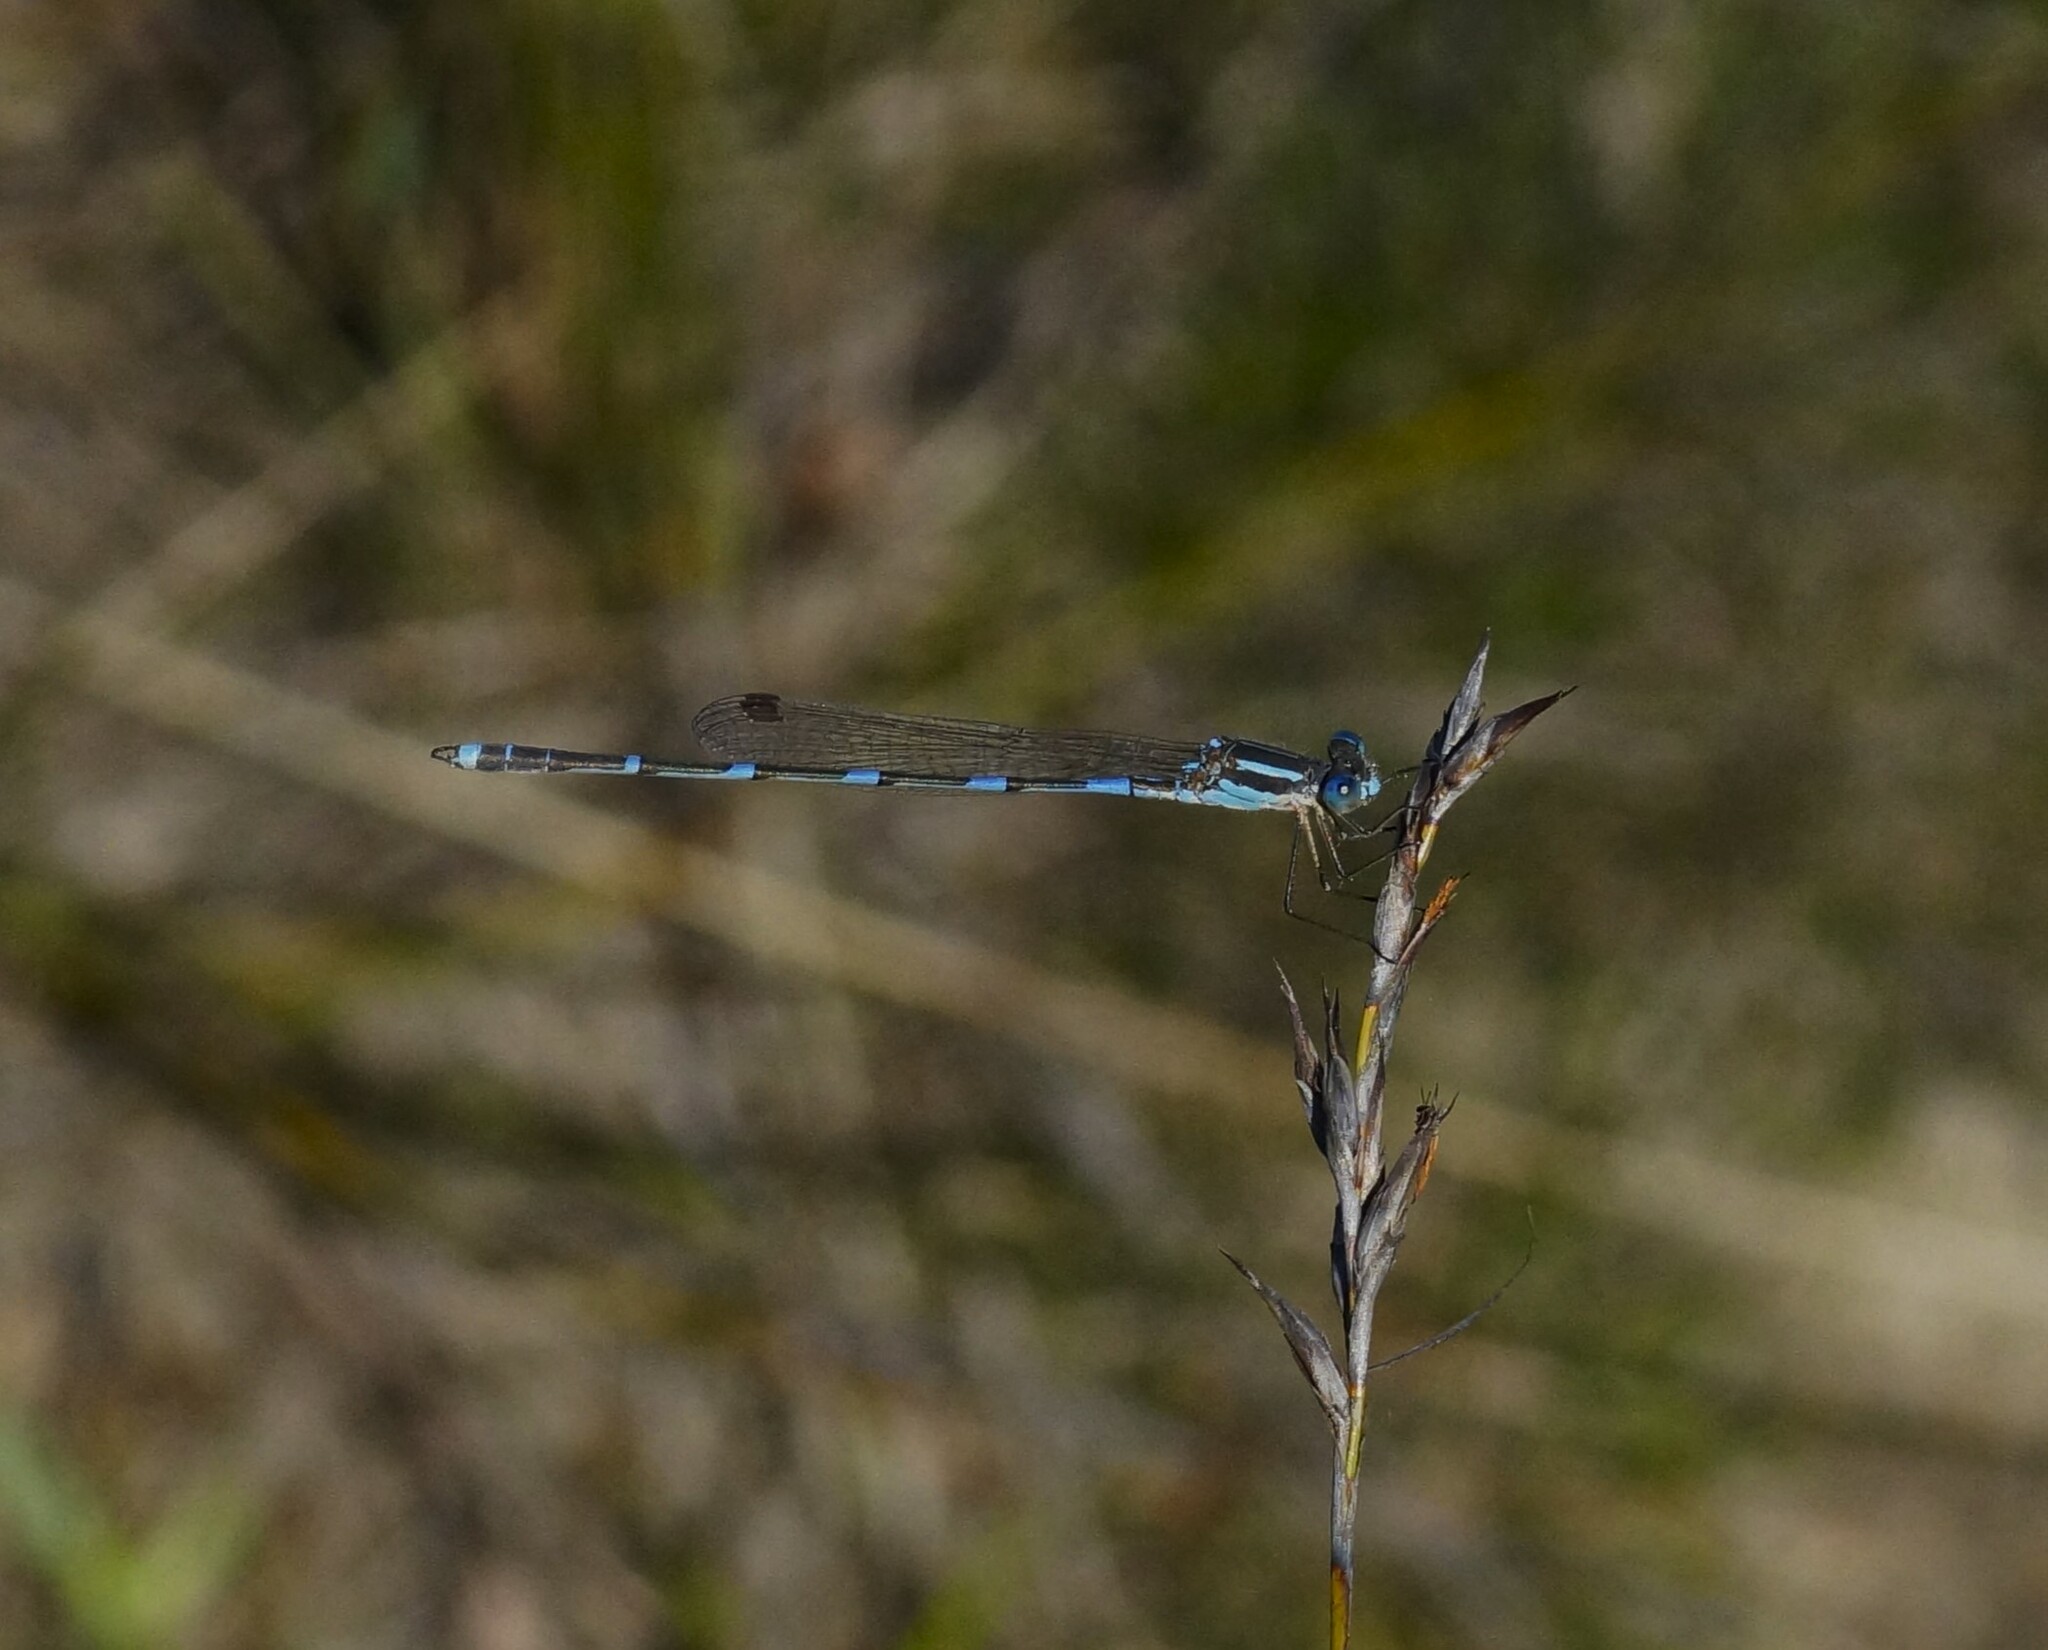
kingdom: Animalia
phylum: Arthropoda
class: Insecta
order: Odonata
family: Lestidae
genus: Austrolestes
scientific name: Austrolestes leda
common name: Wandering ringtail
